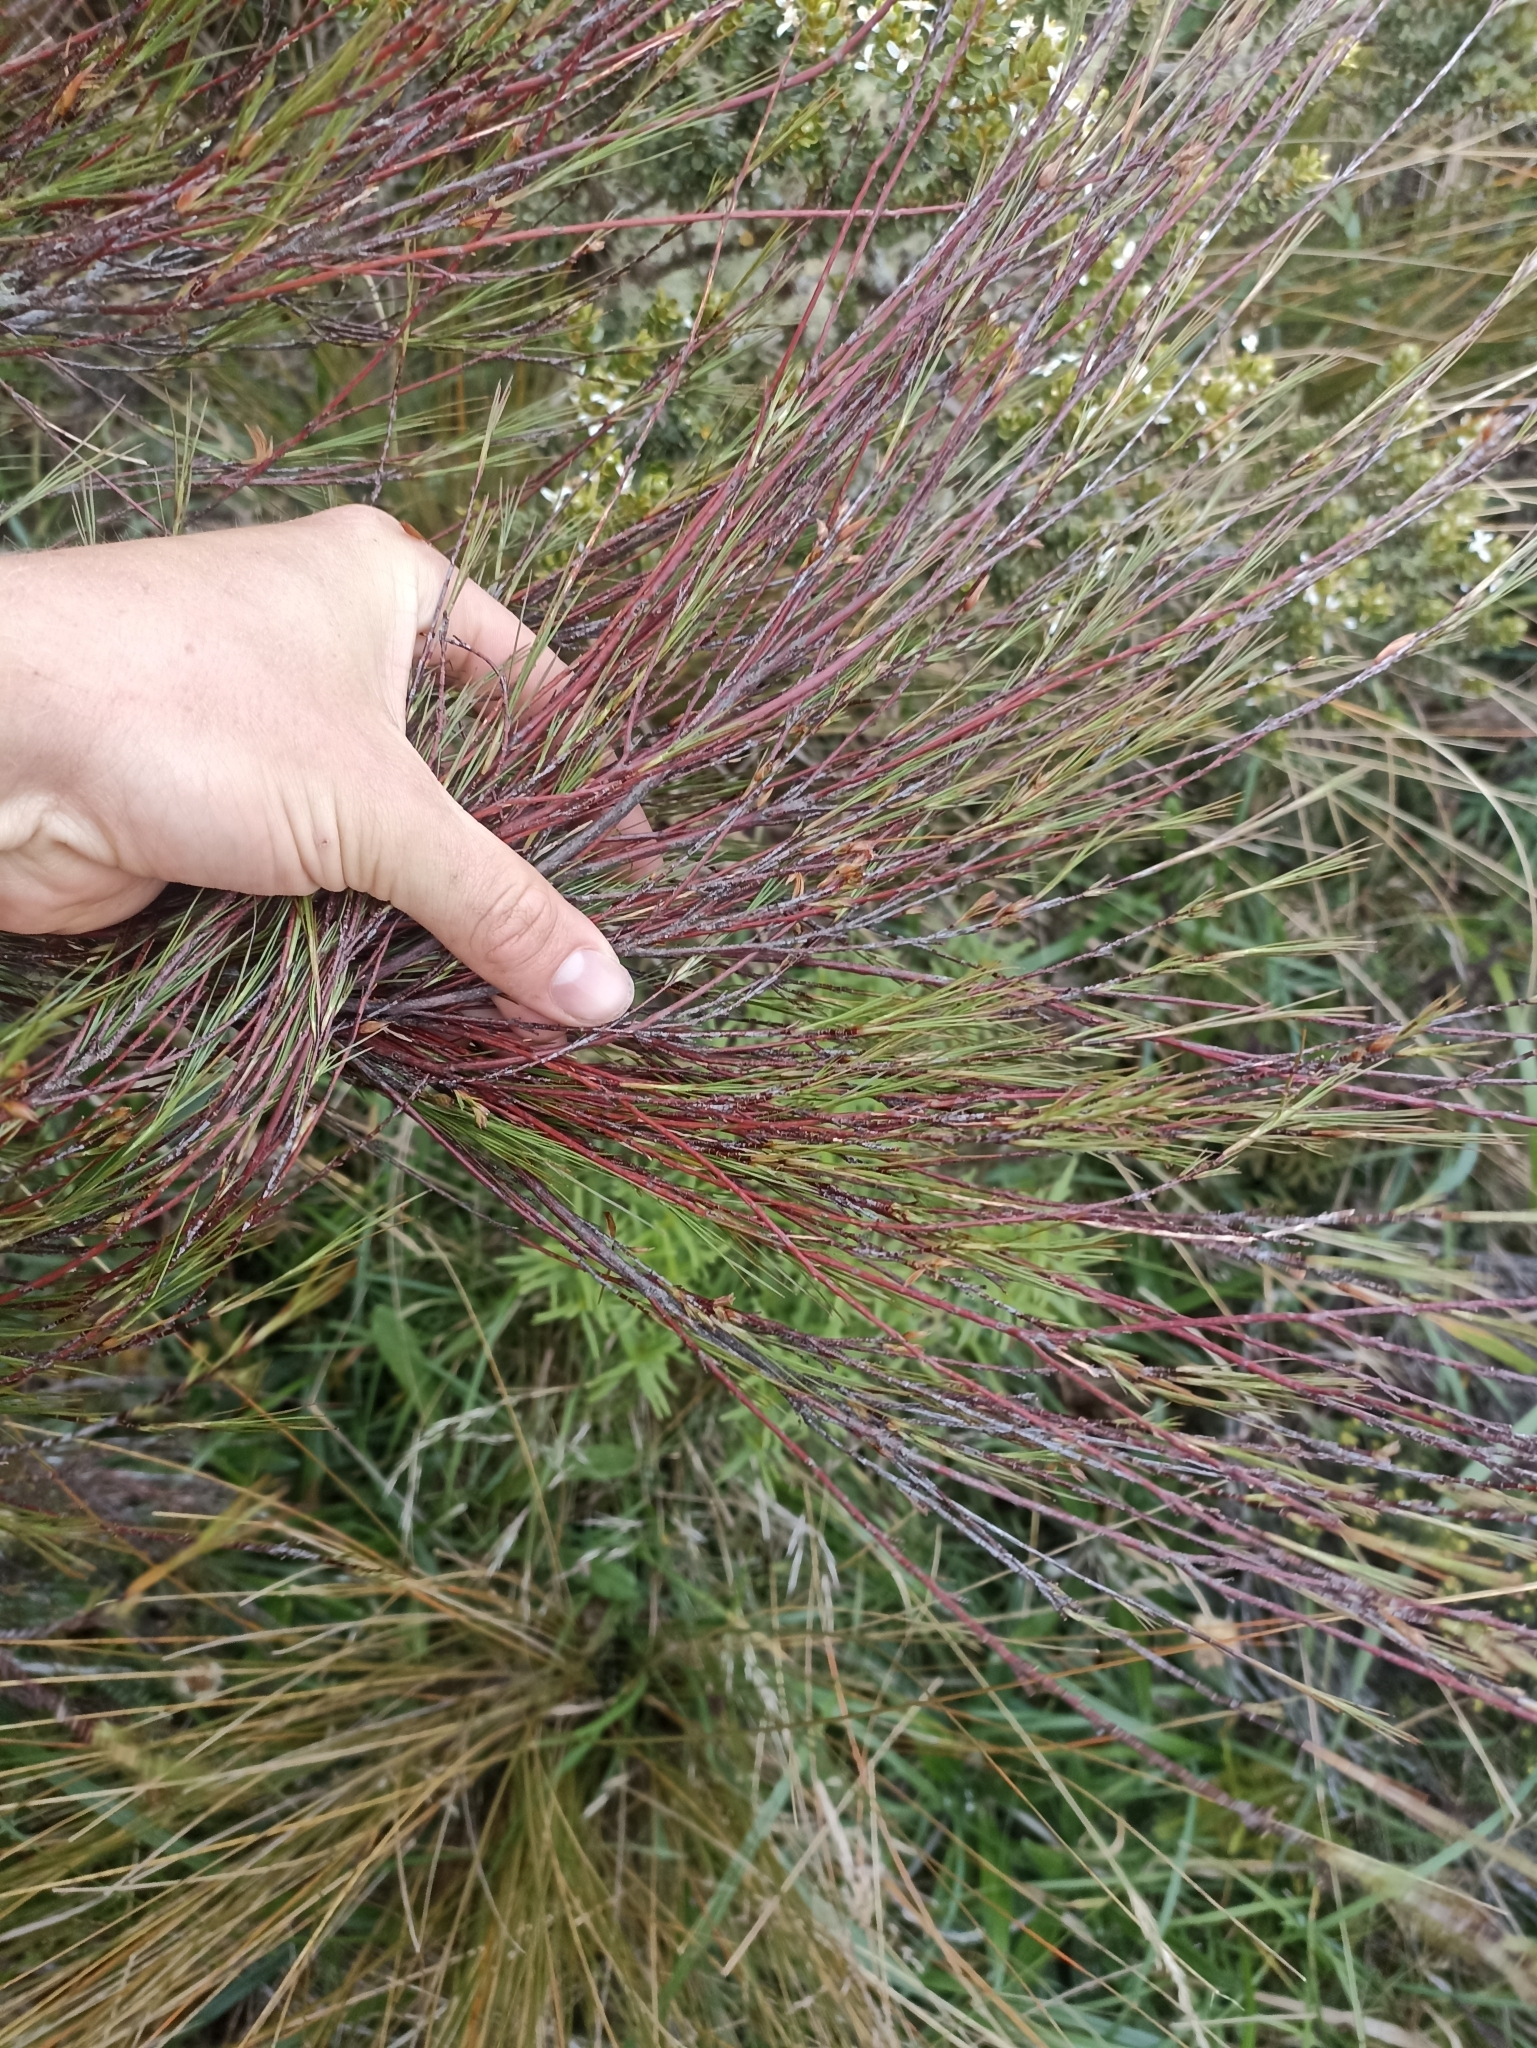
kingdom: Plantae
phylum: Tracheophyta
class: Magnoliopsida
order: Ericales
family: Ericaceae
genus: Dracophyllum
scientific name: Dracophyllum subulatum
